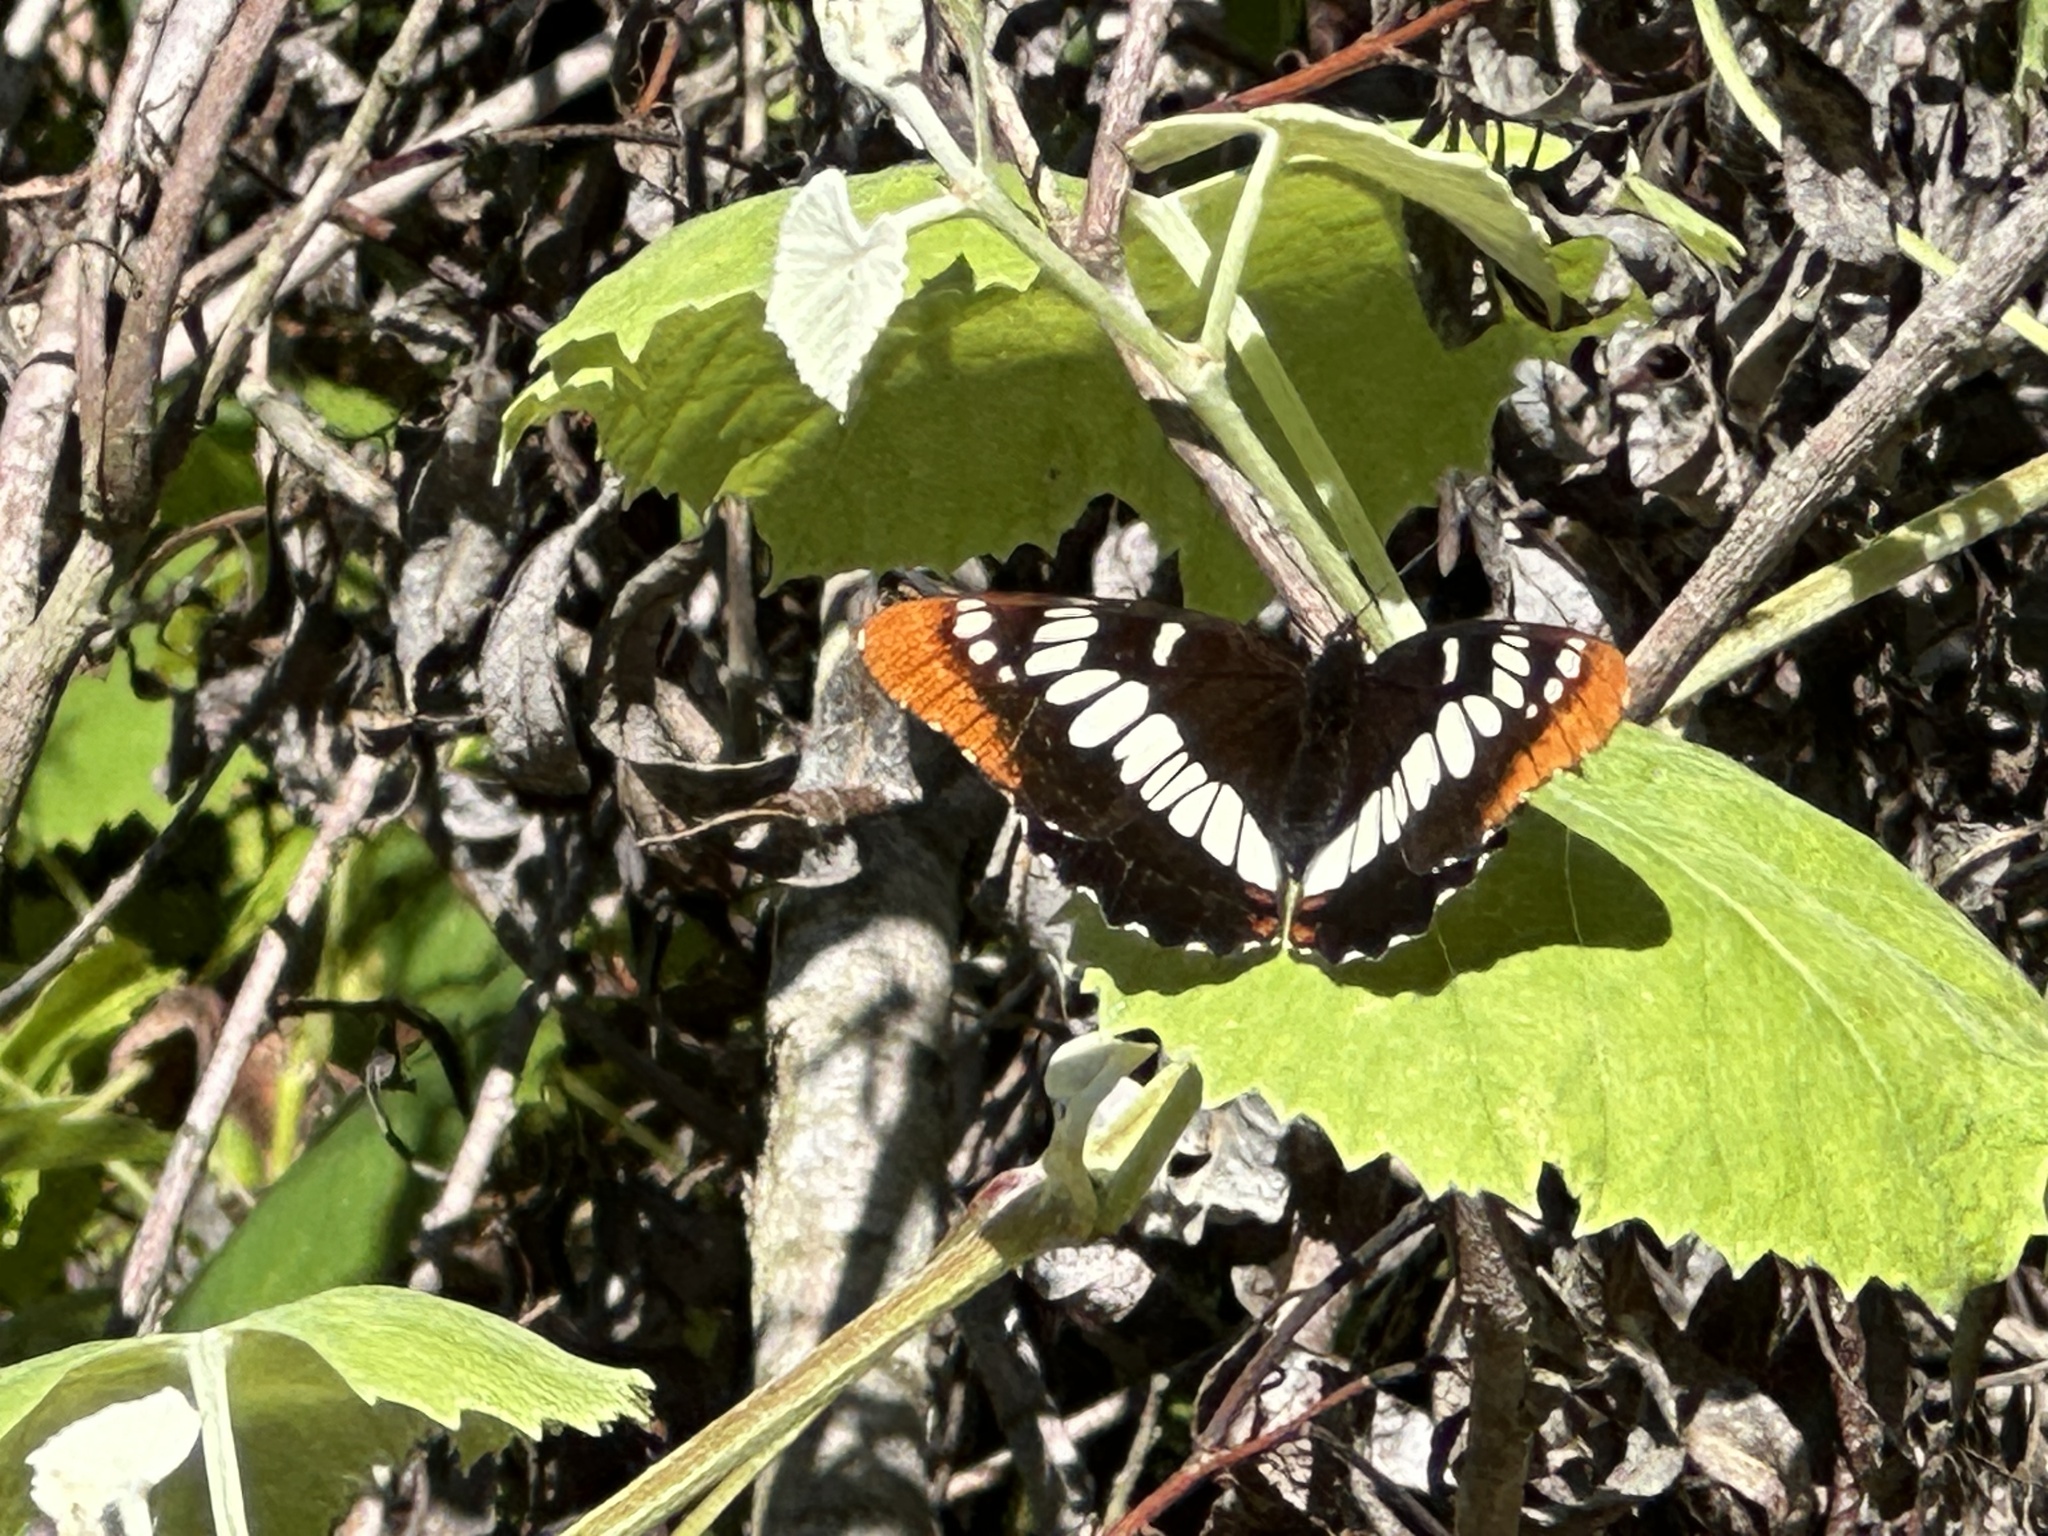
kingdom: Animalia
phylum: Arthropoda
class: Insecta
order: Lepidoptera
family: Nymphalidae
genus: Limenitis
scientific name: Limenitis lorquini
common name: Lorquin's admiral
